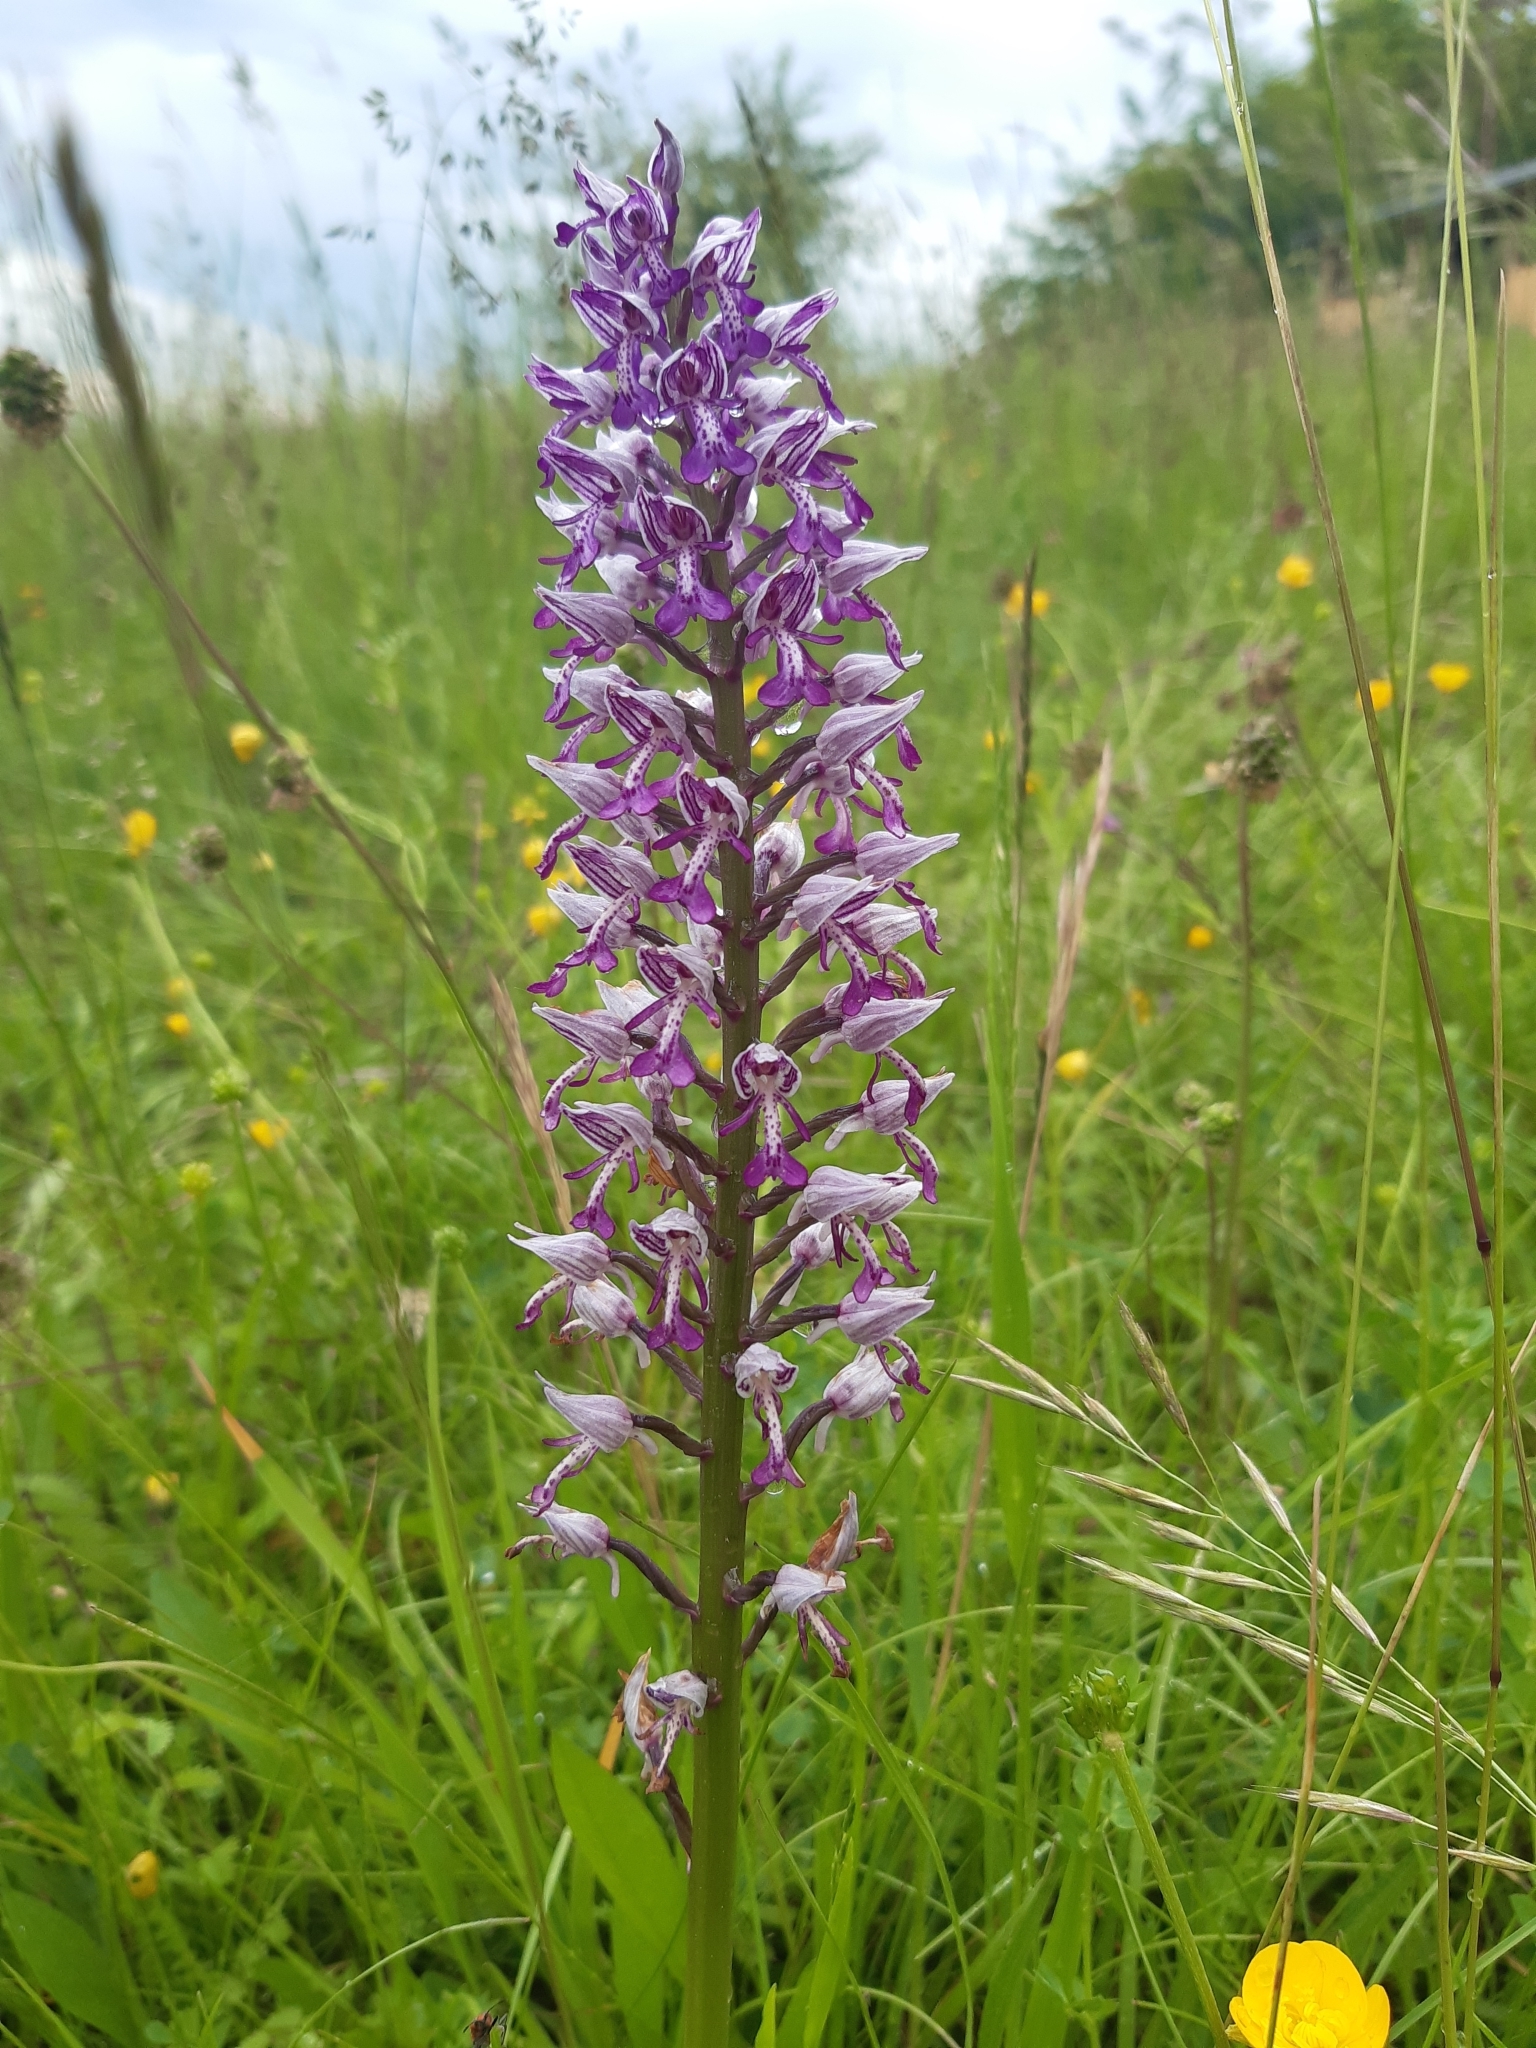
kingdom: Plantae
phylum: Tracheophyta
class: Liliopsida
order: Asparagales
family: Orchidaceae
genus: Orchis
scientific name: Orchis militaris
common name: Military orchid
